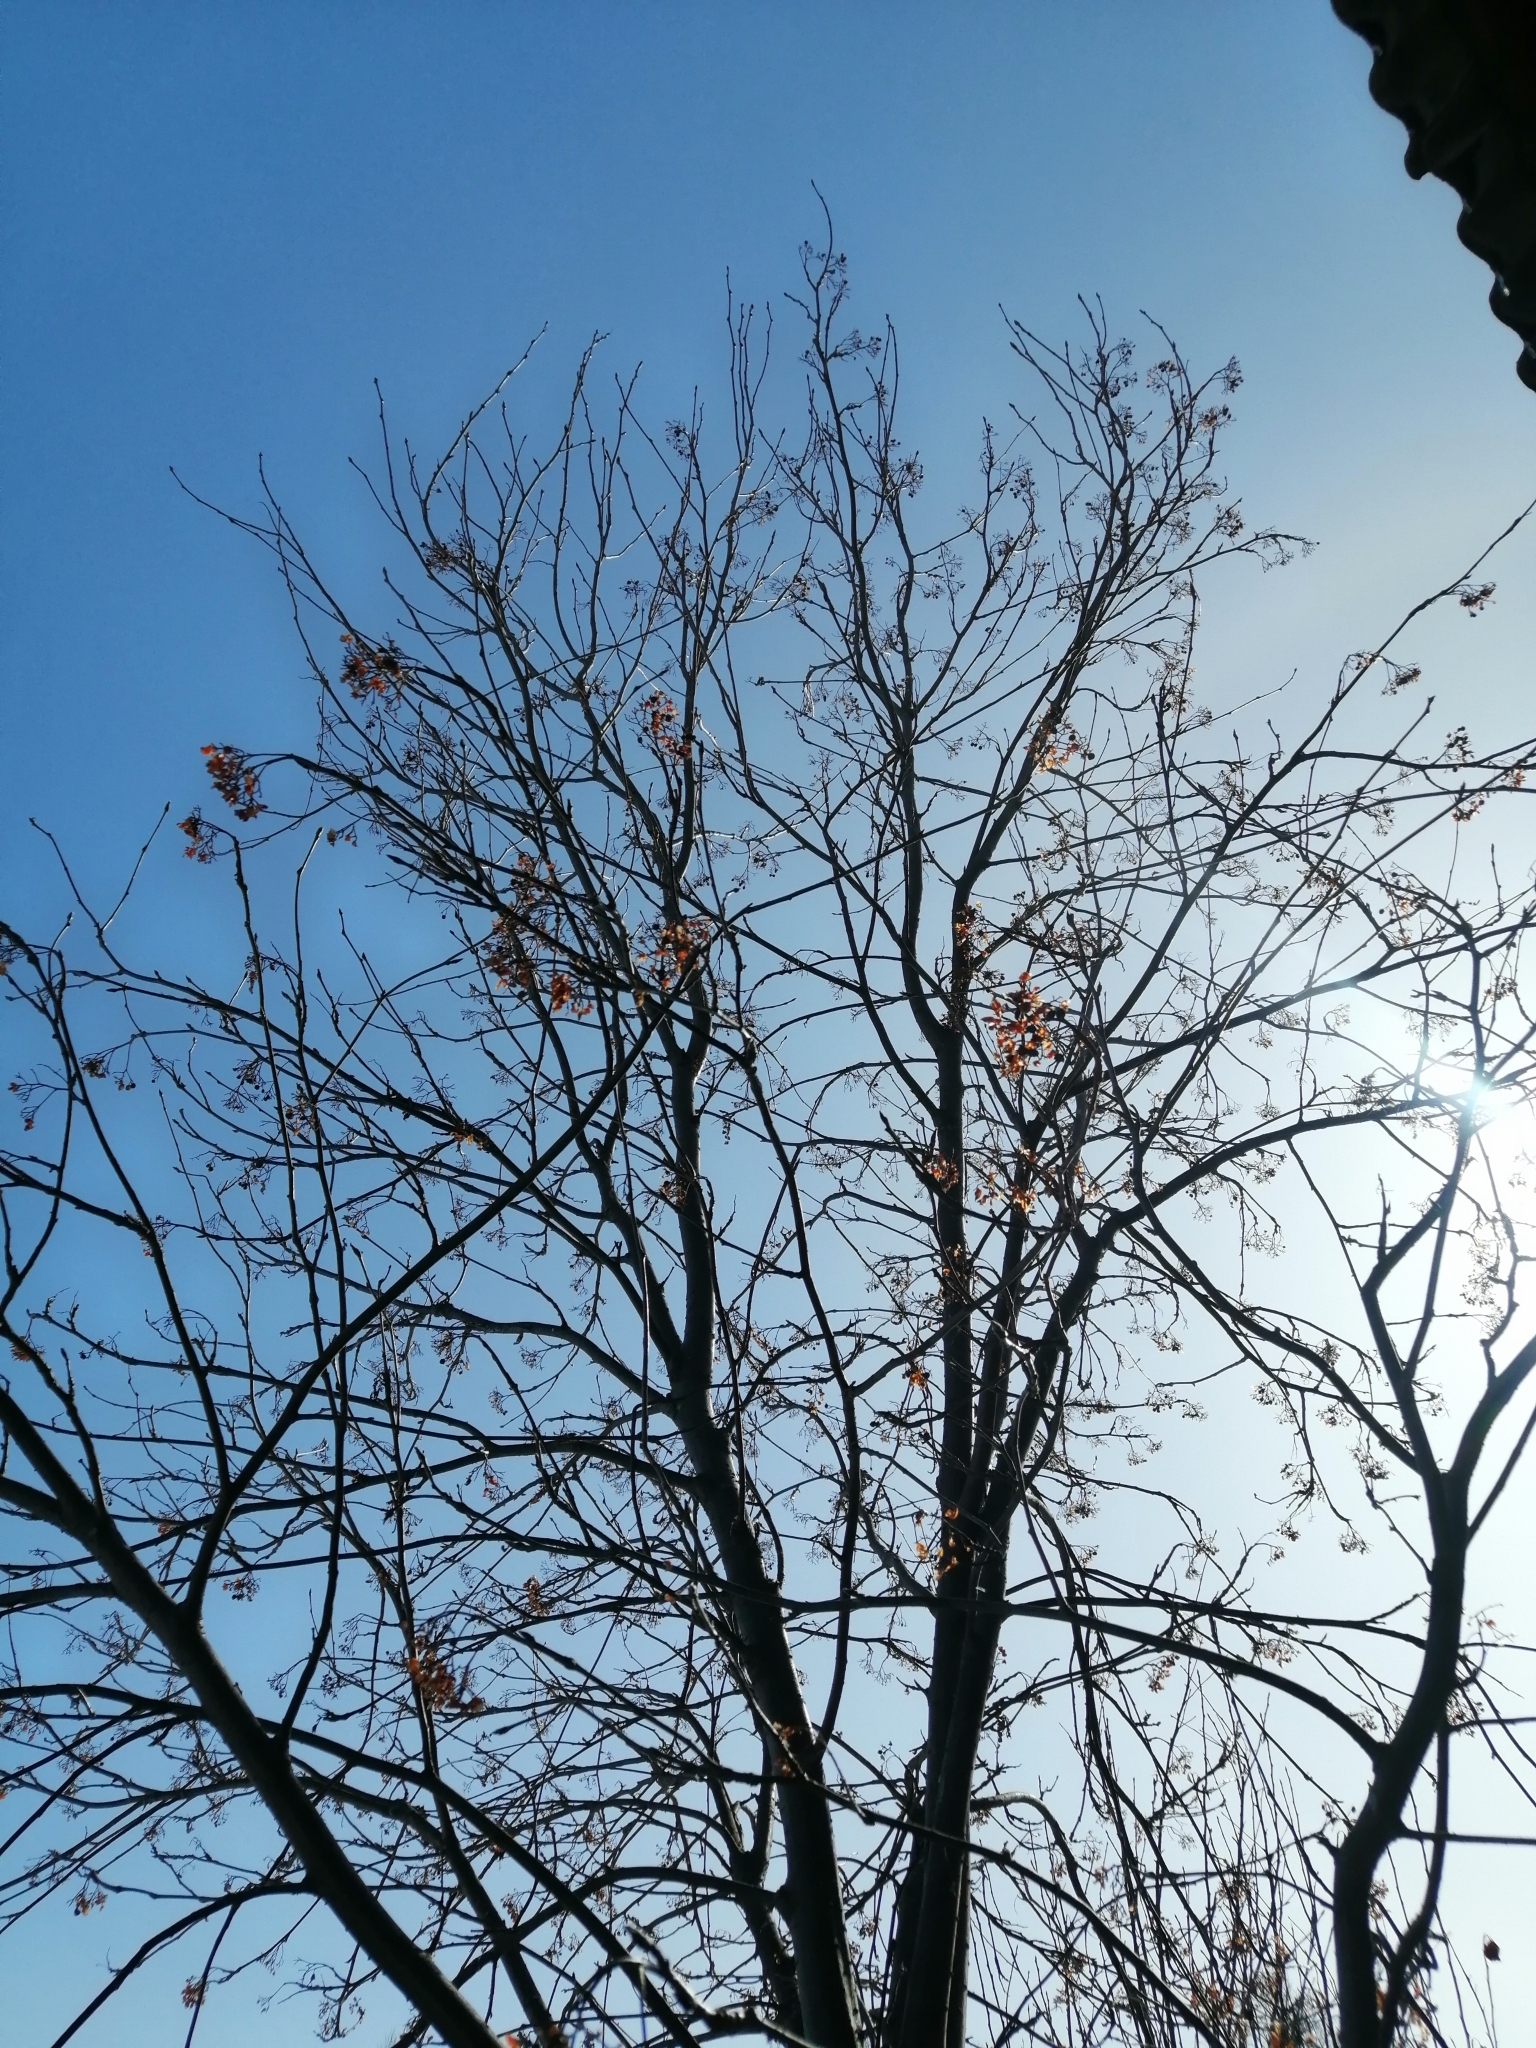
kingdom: Plantae
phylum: Tracheophyta
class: Magnoliopsida
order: Rosales
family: Rosaceae
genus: Sorbus
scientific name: Sorbus aucuparia
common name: Rowan
